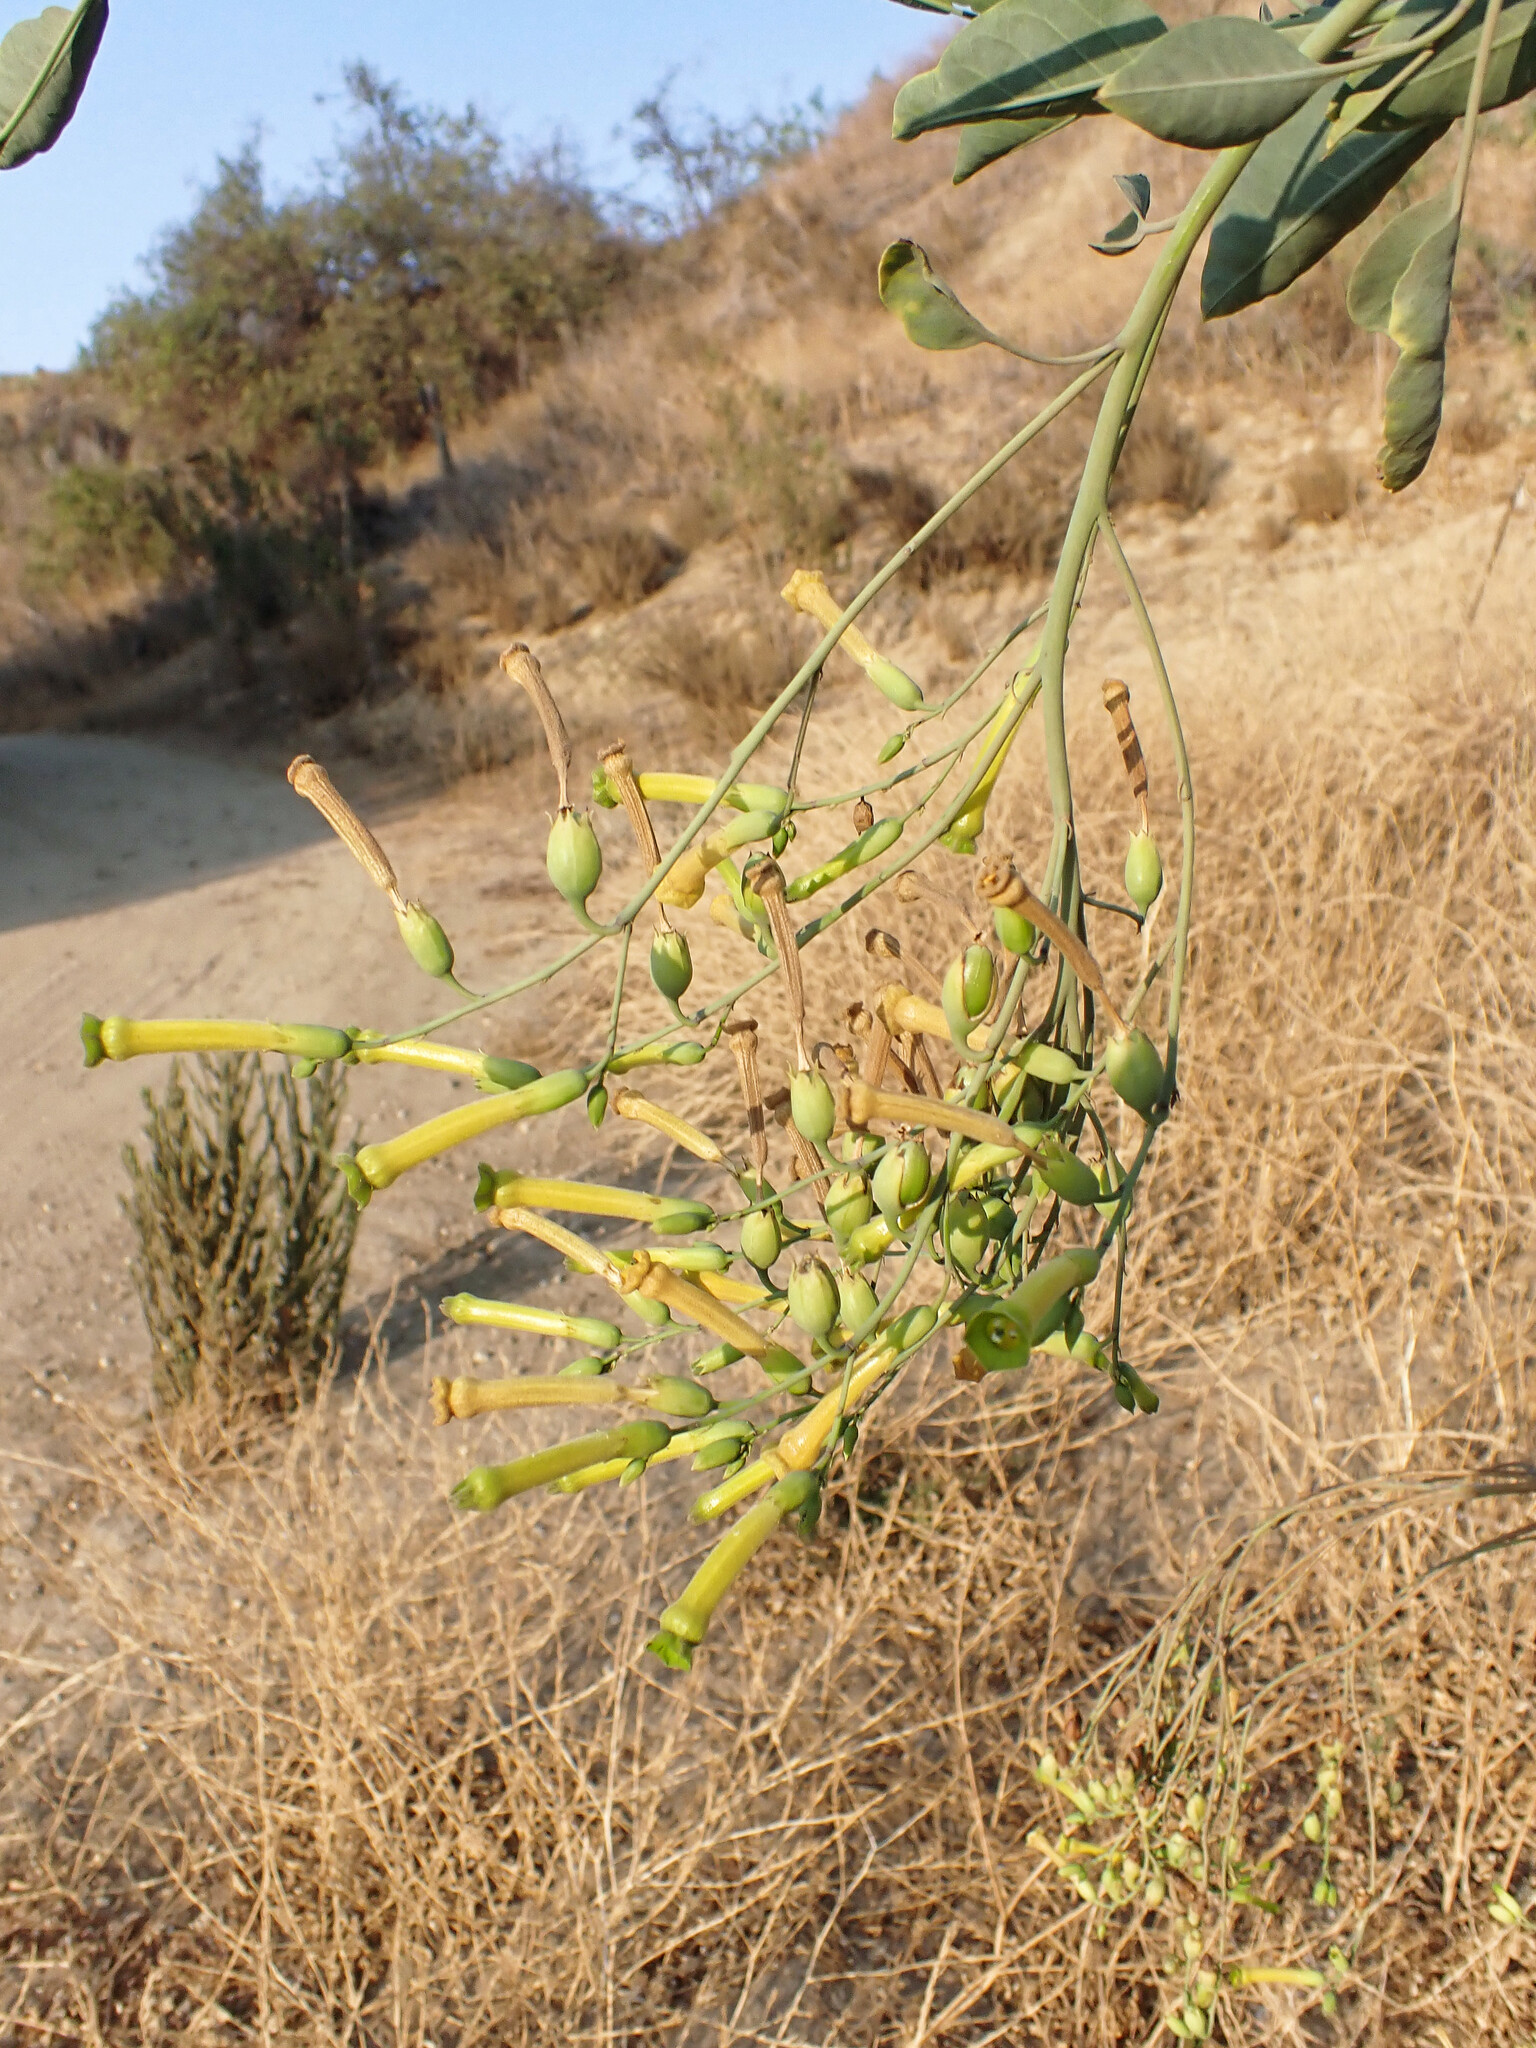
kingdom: Plantae
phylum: Tracheophyta
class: Magnoliopsida
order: Solanales
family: Solanaceae
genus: Nicotiana
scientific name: Nicotiana glauca
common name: Tree tobacco
